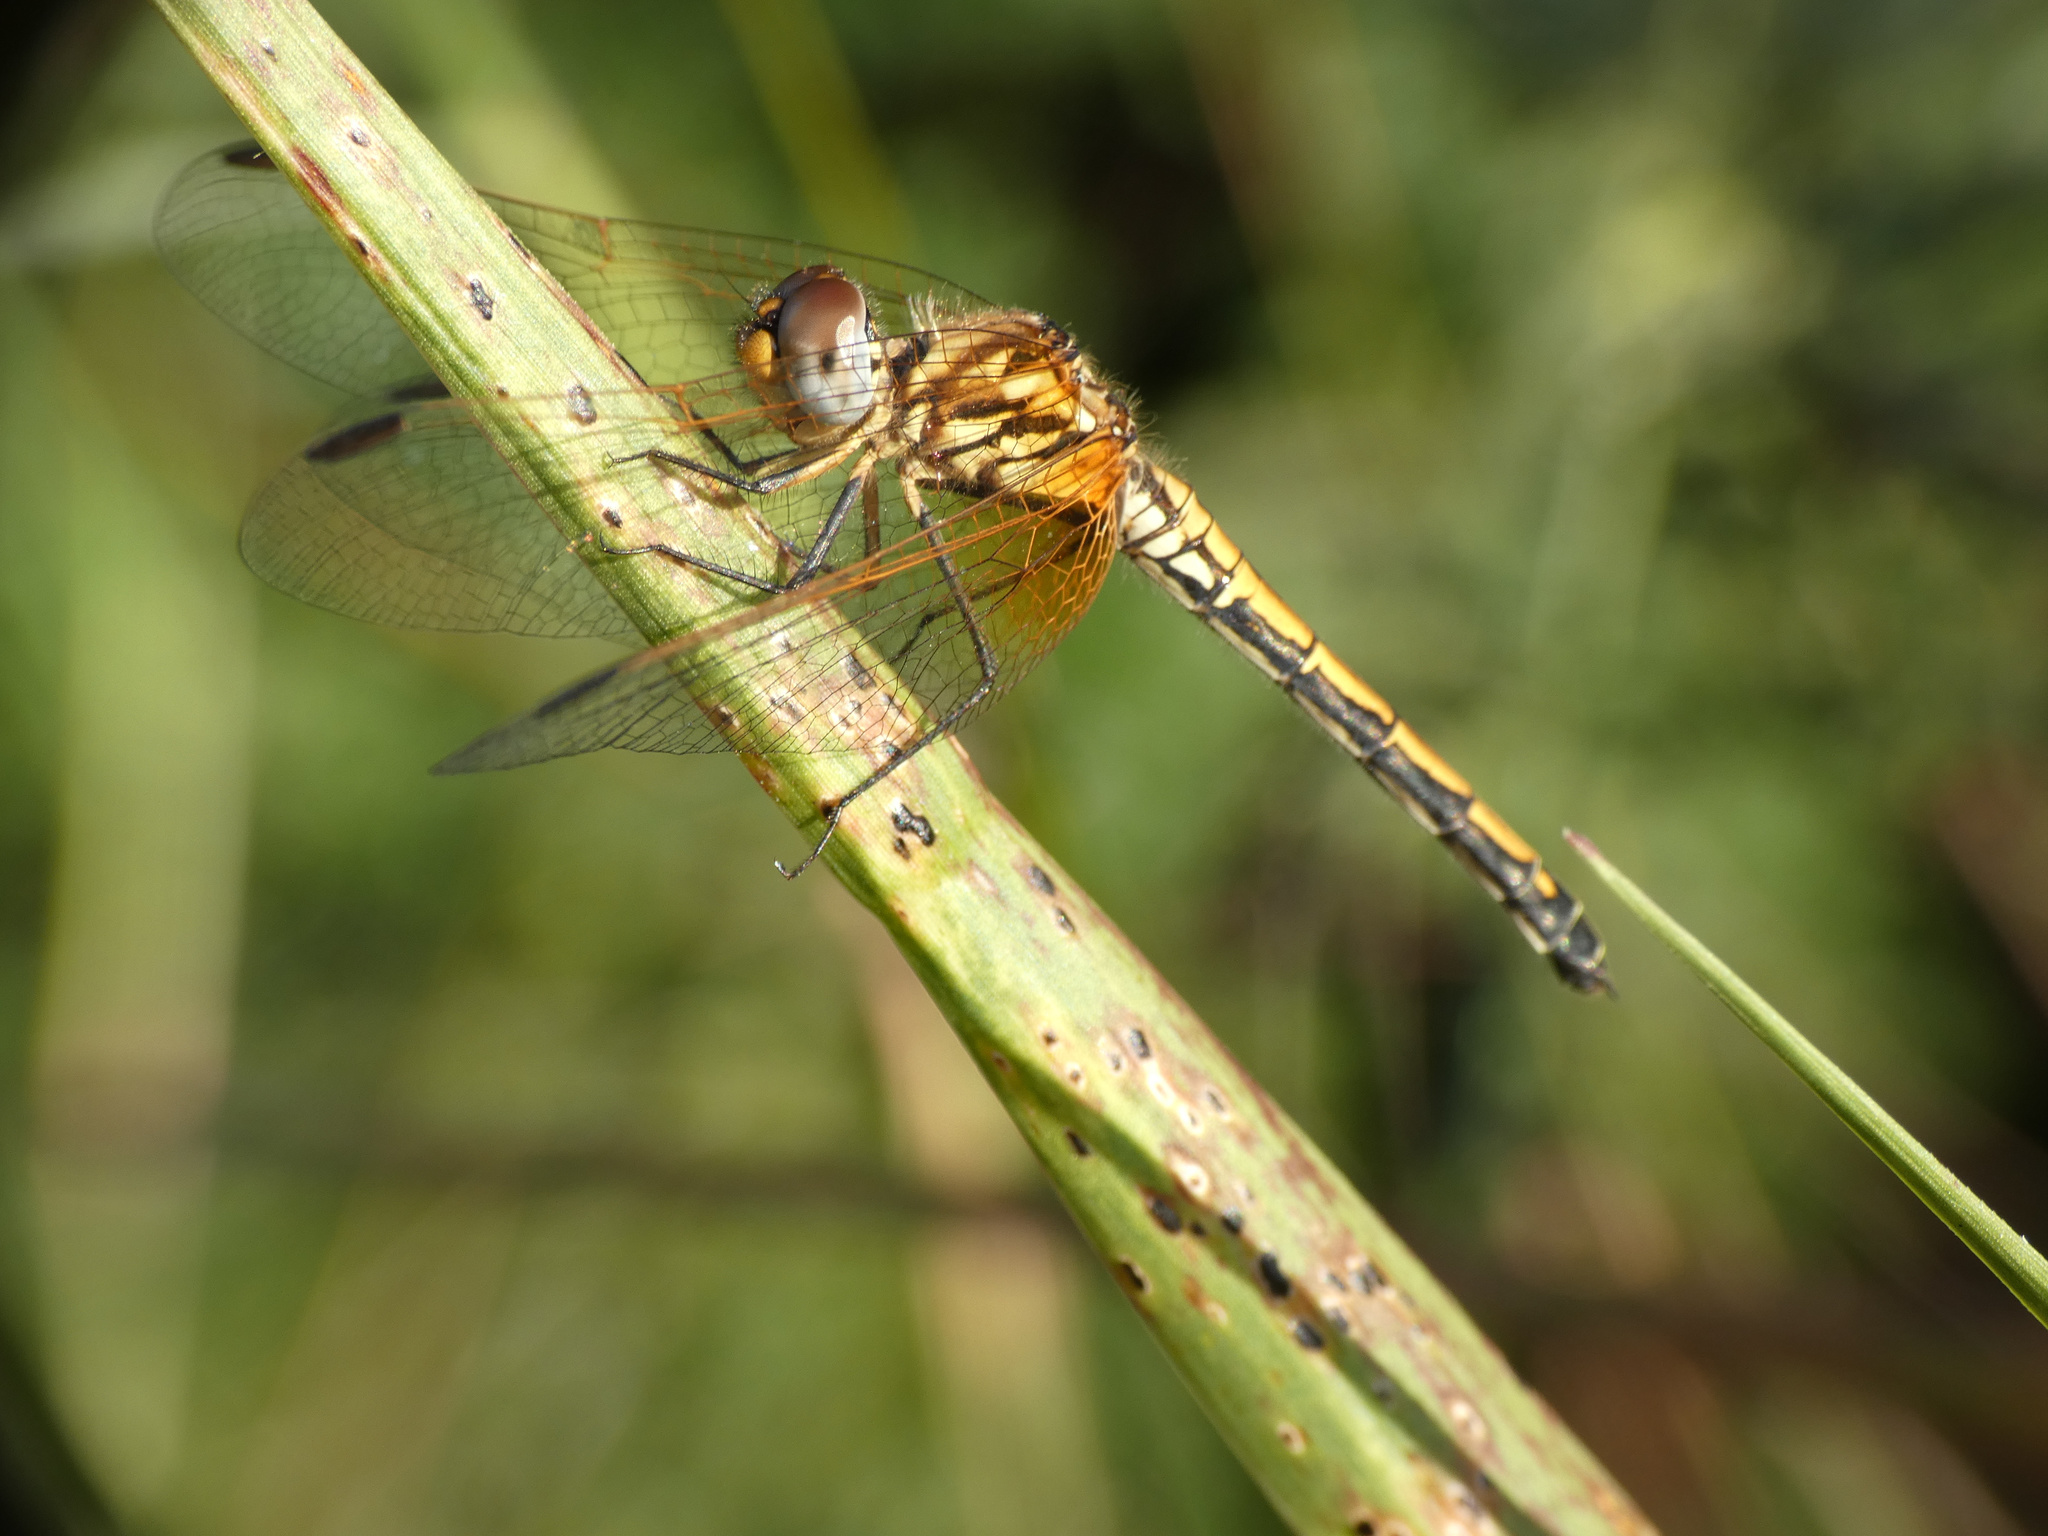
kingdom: Animalia
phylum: Arthropoda
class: Insecta
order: Odonata
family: Libellulidae
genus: Trithemis
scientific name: Trithemis arteriosa
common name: Red-veined dropwing
